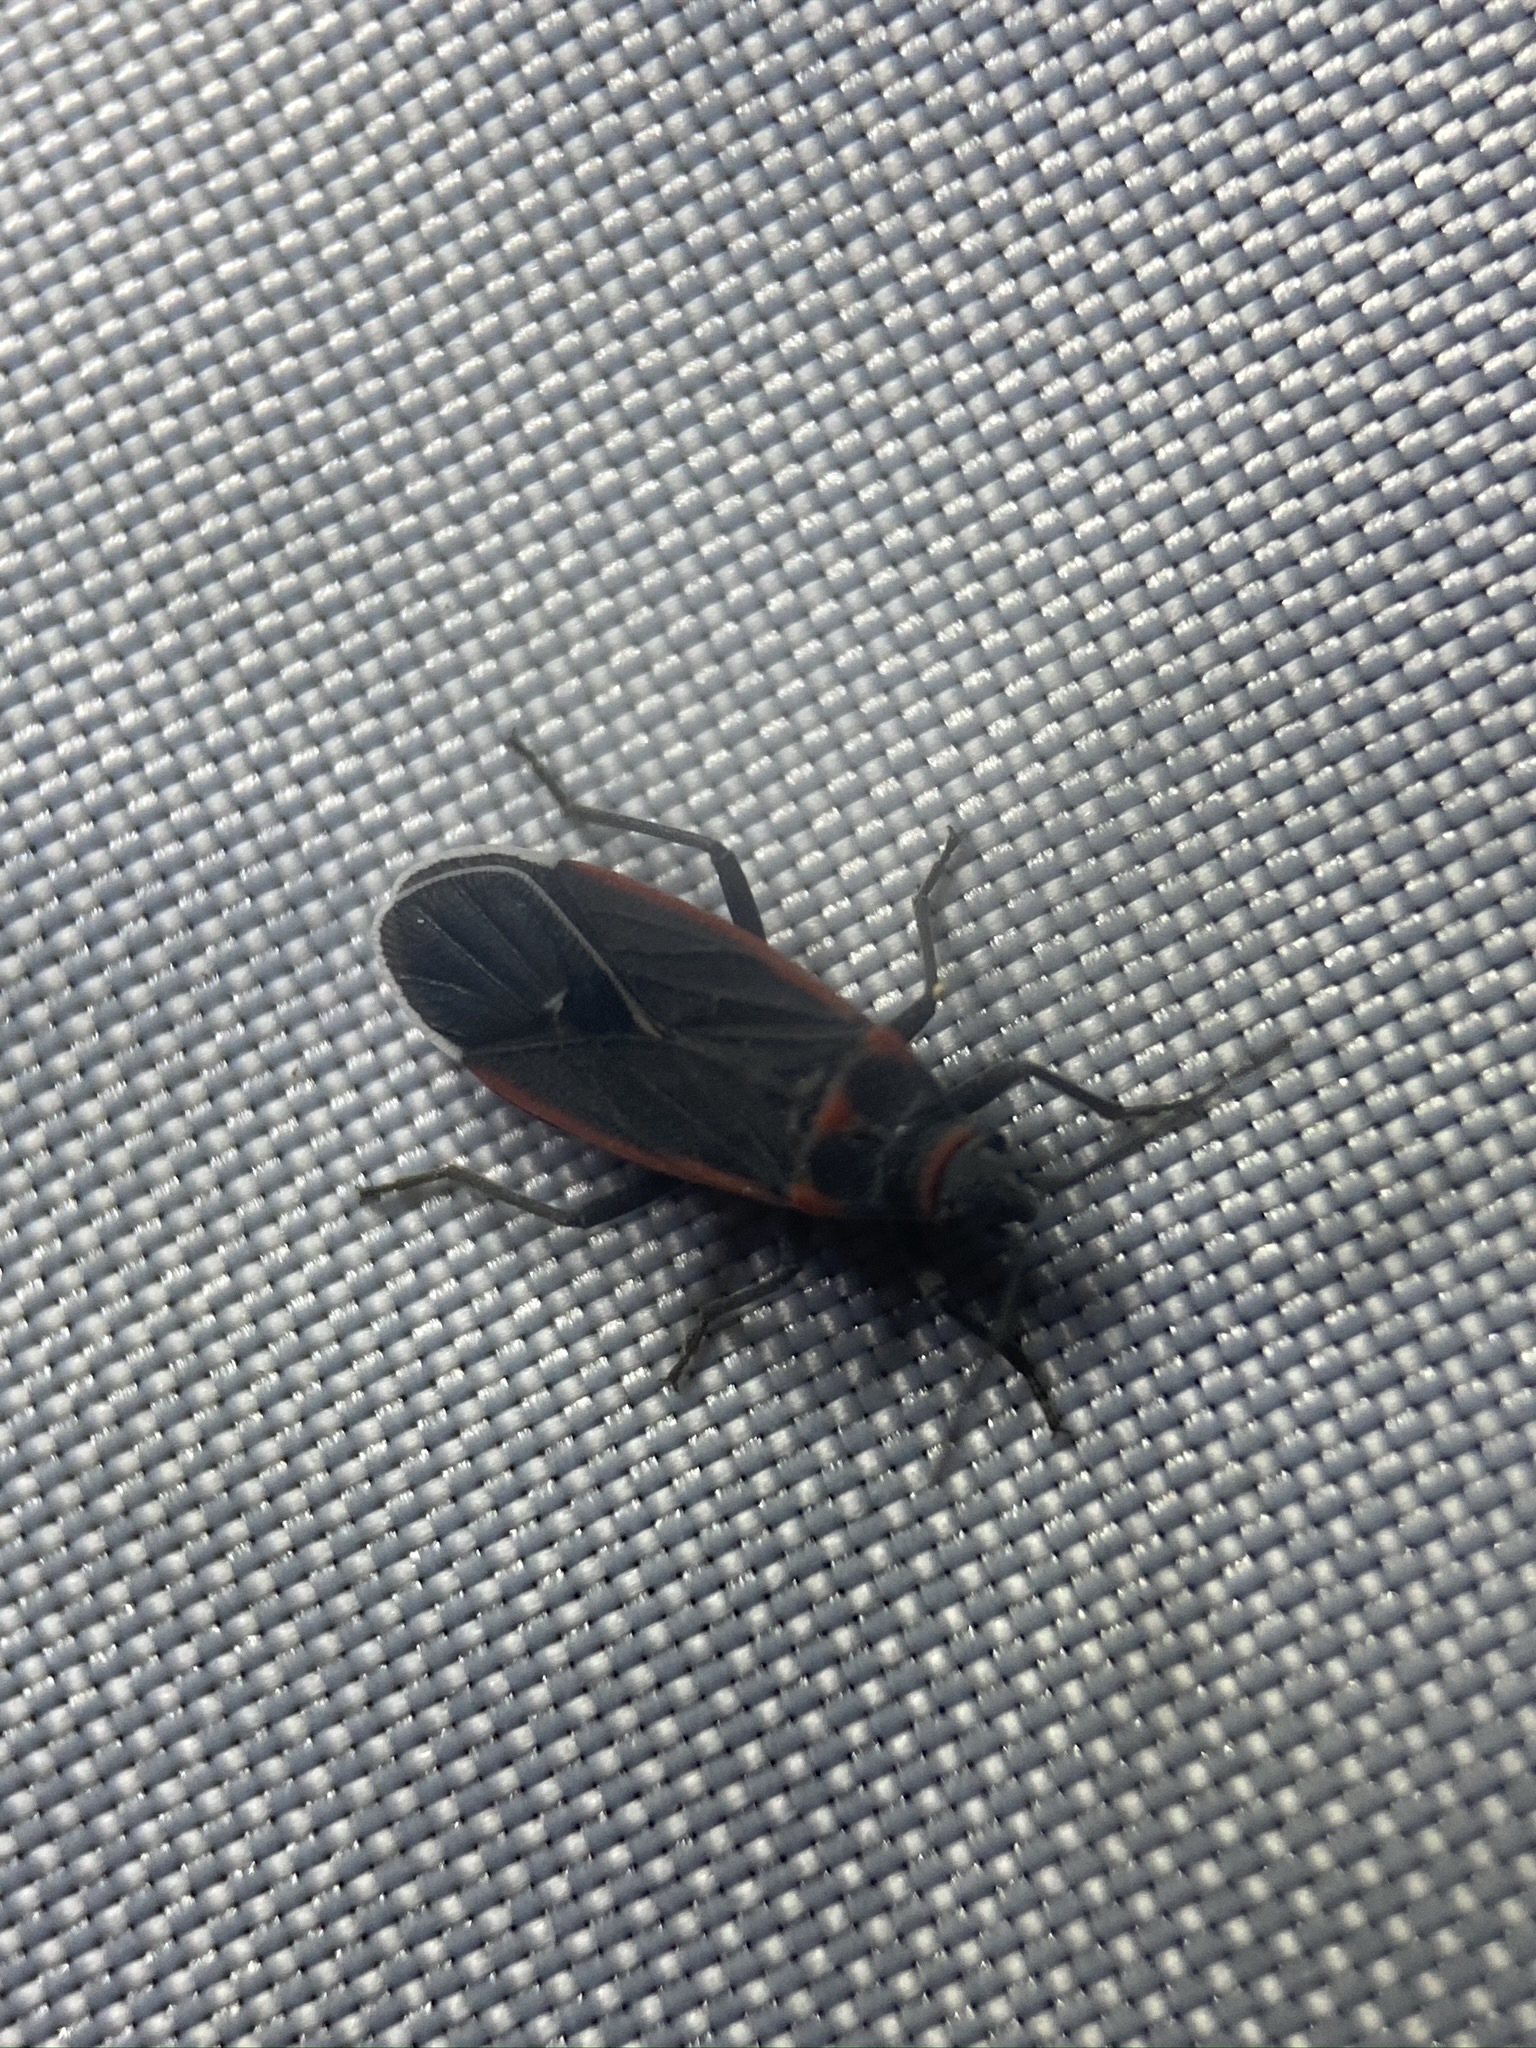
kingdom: Animalia
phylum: Arthropoda
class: Insecta
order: Hemiptera
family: Lygaeidae
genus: Melacoryphus
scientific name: Melacoryphus lateralis
